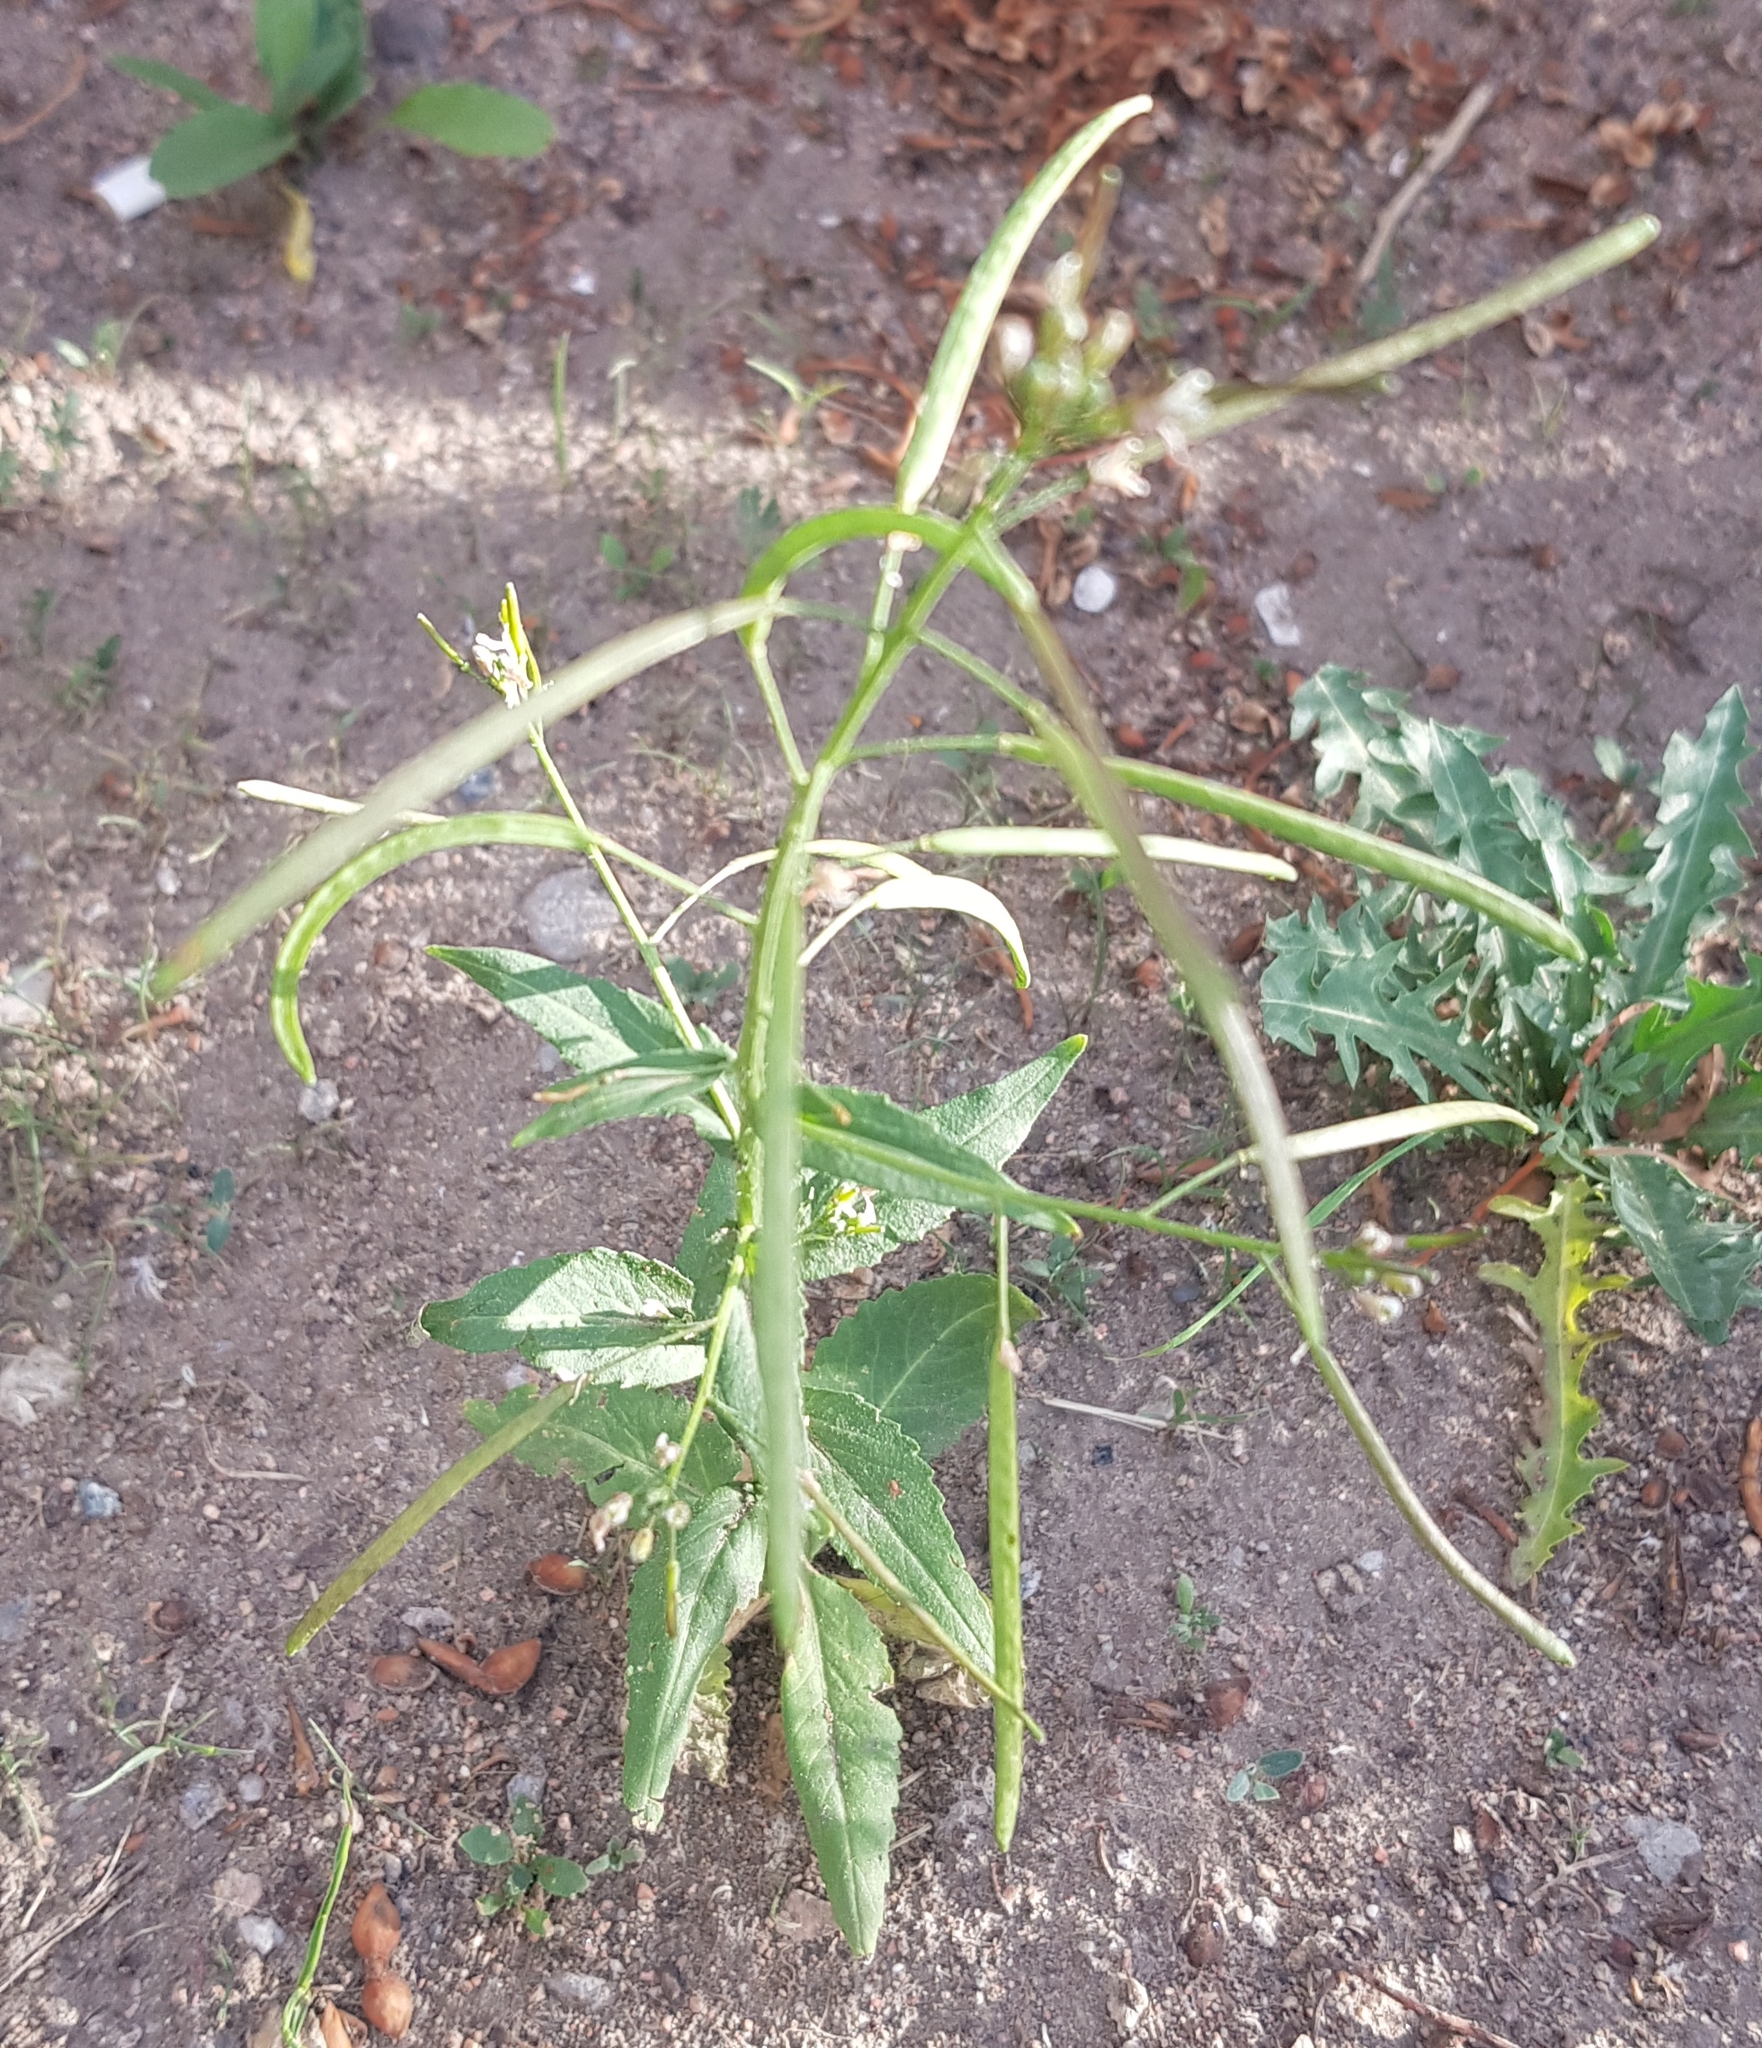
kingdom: Plantae
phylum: Tracheophyta
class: Magnoliopsida
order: Brassicales
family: Brassicaceae
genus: Catolobus
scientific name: Catolobus pendulus
